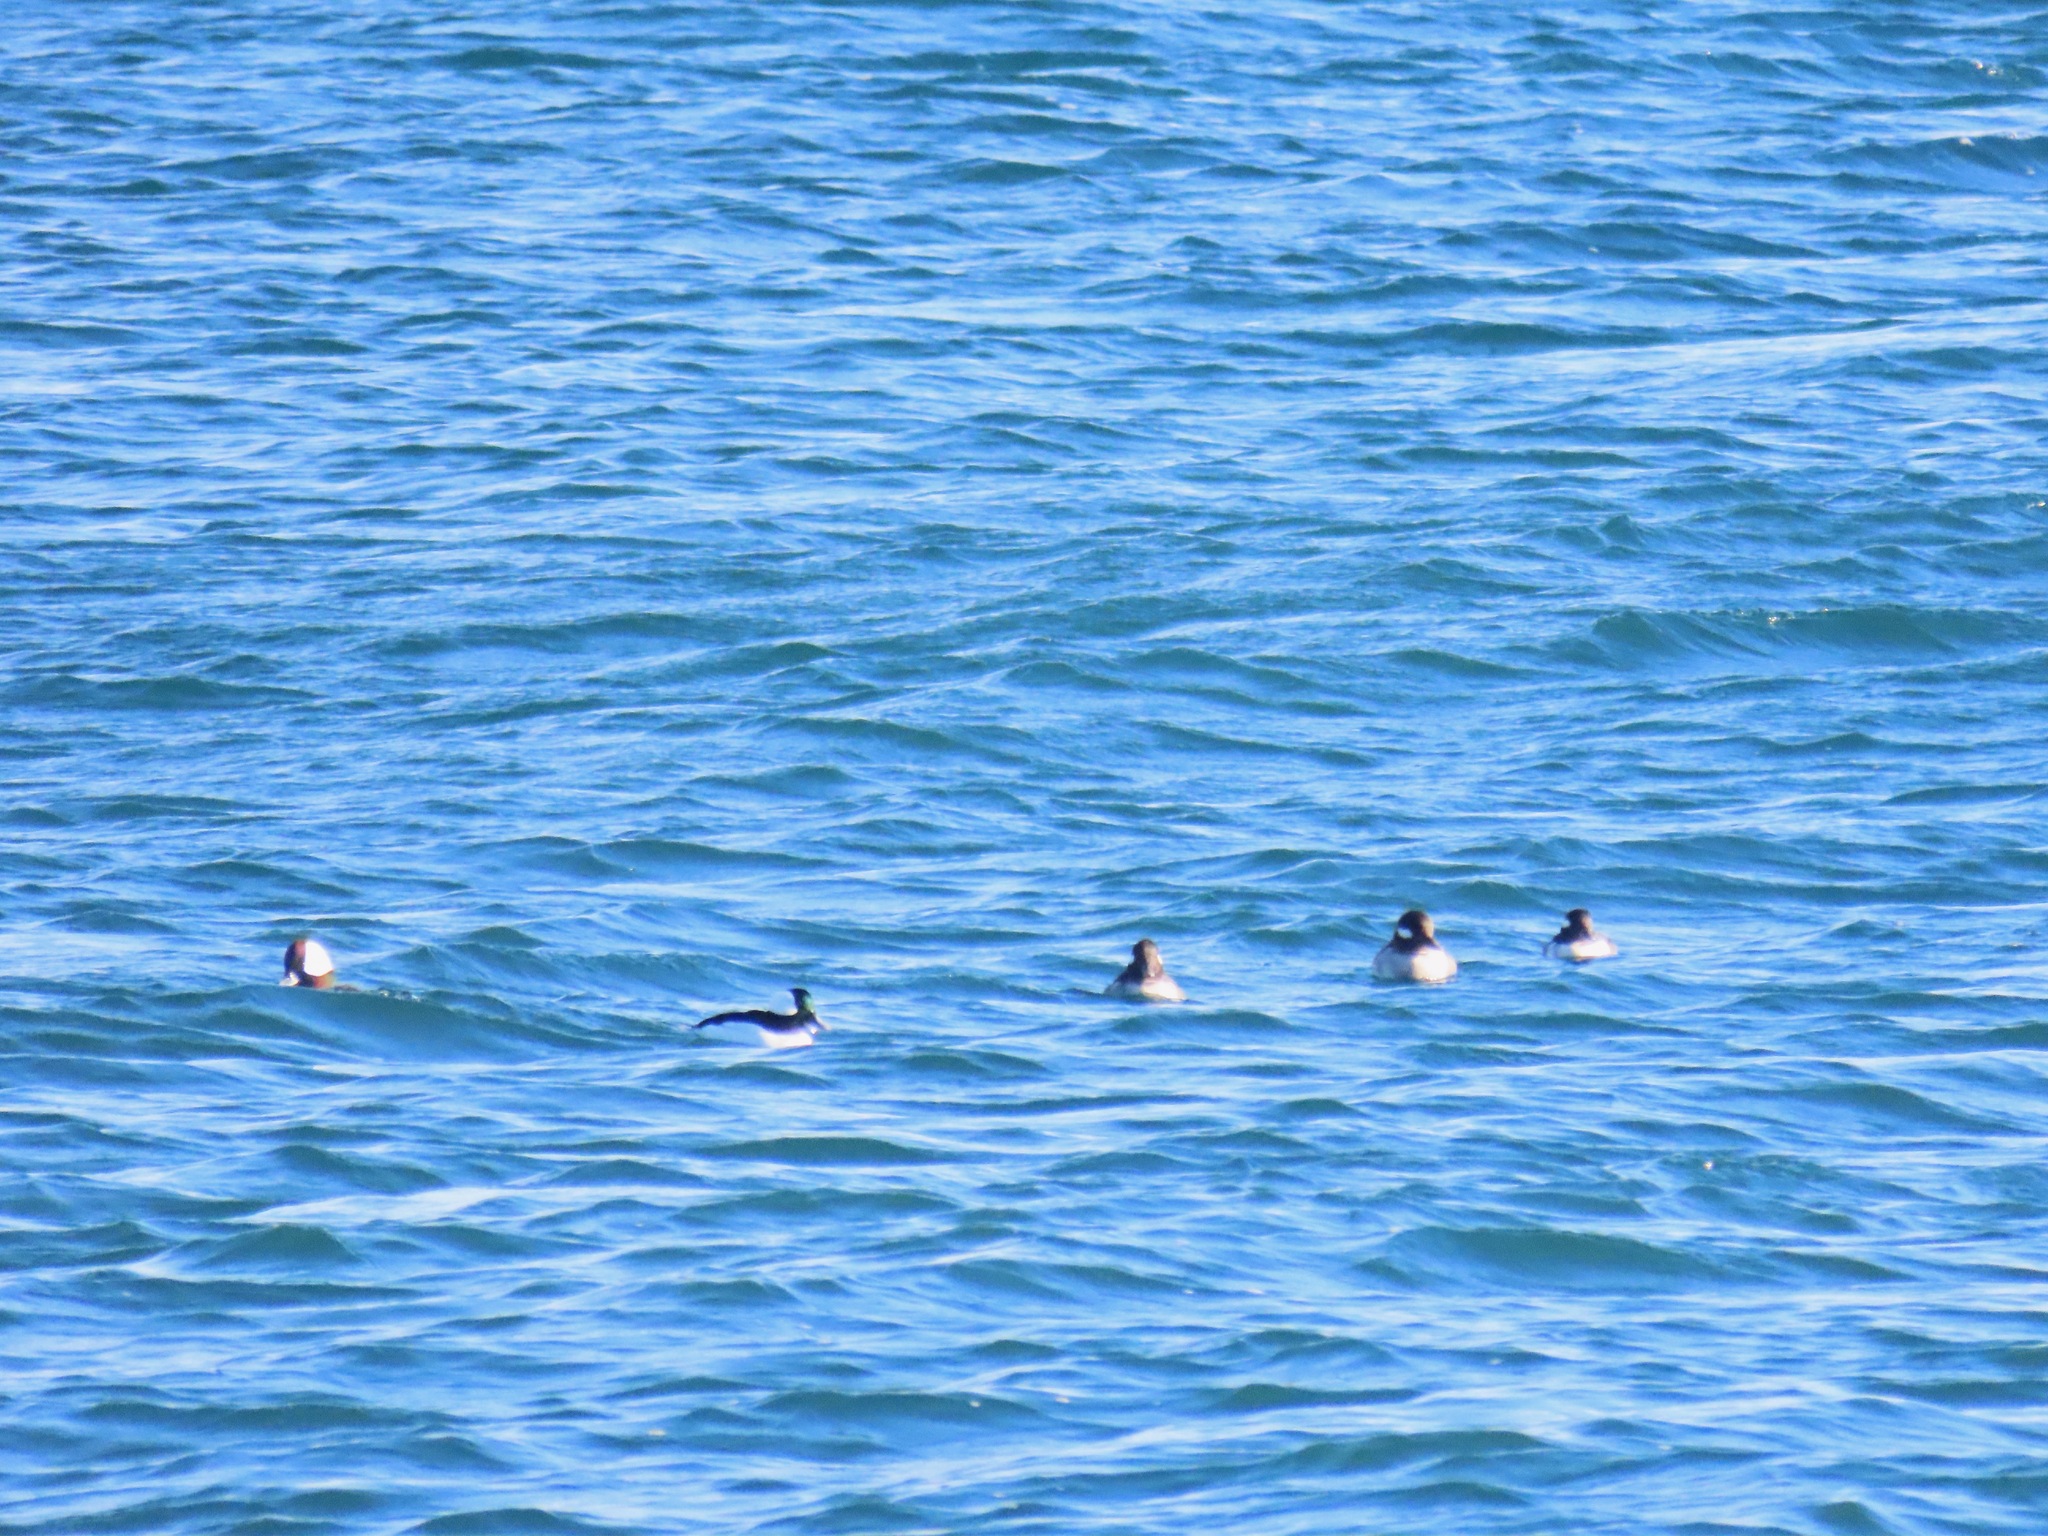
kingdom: Animalia
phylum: Chordata
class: Aves
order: Anseriformes
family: Anatidae
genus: Bucephala
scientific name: Bucephala albeola
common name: Bufflehead
